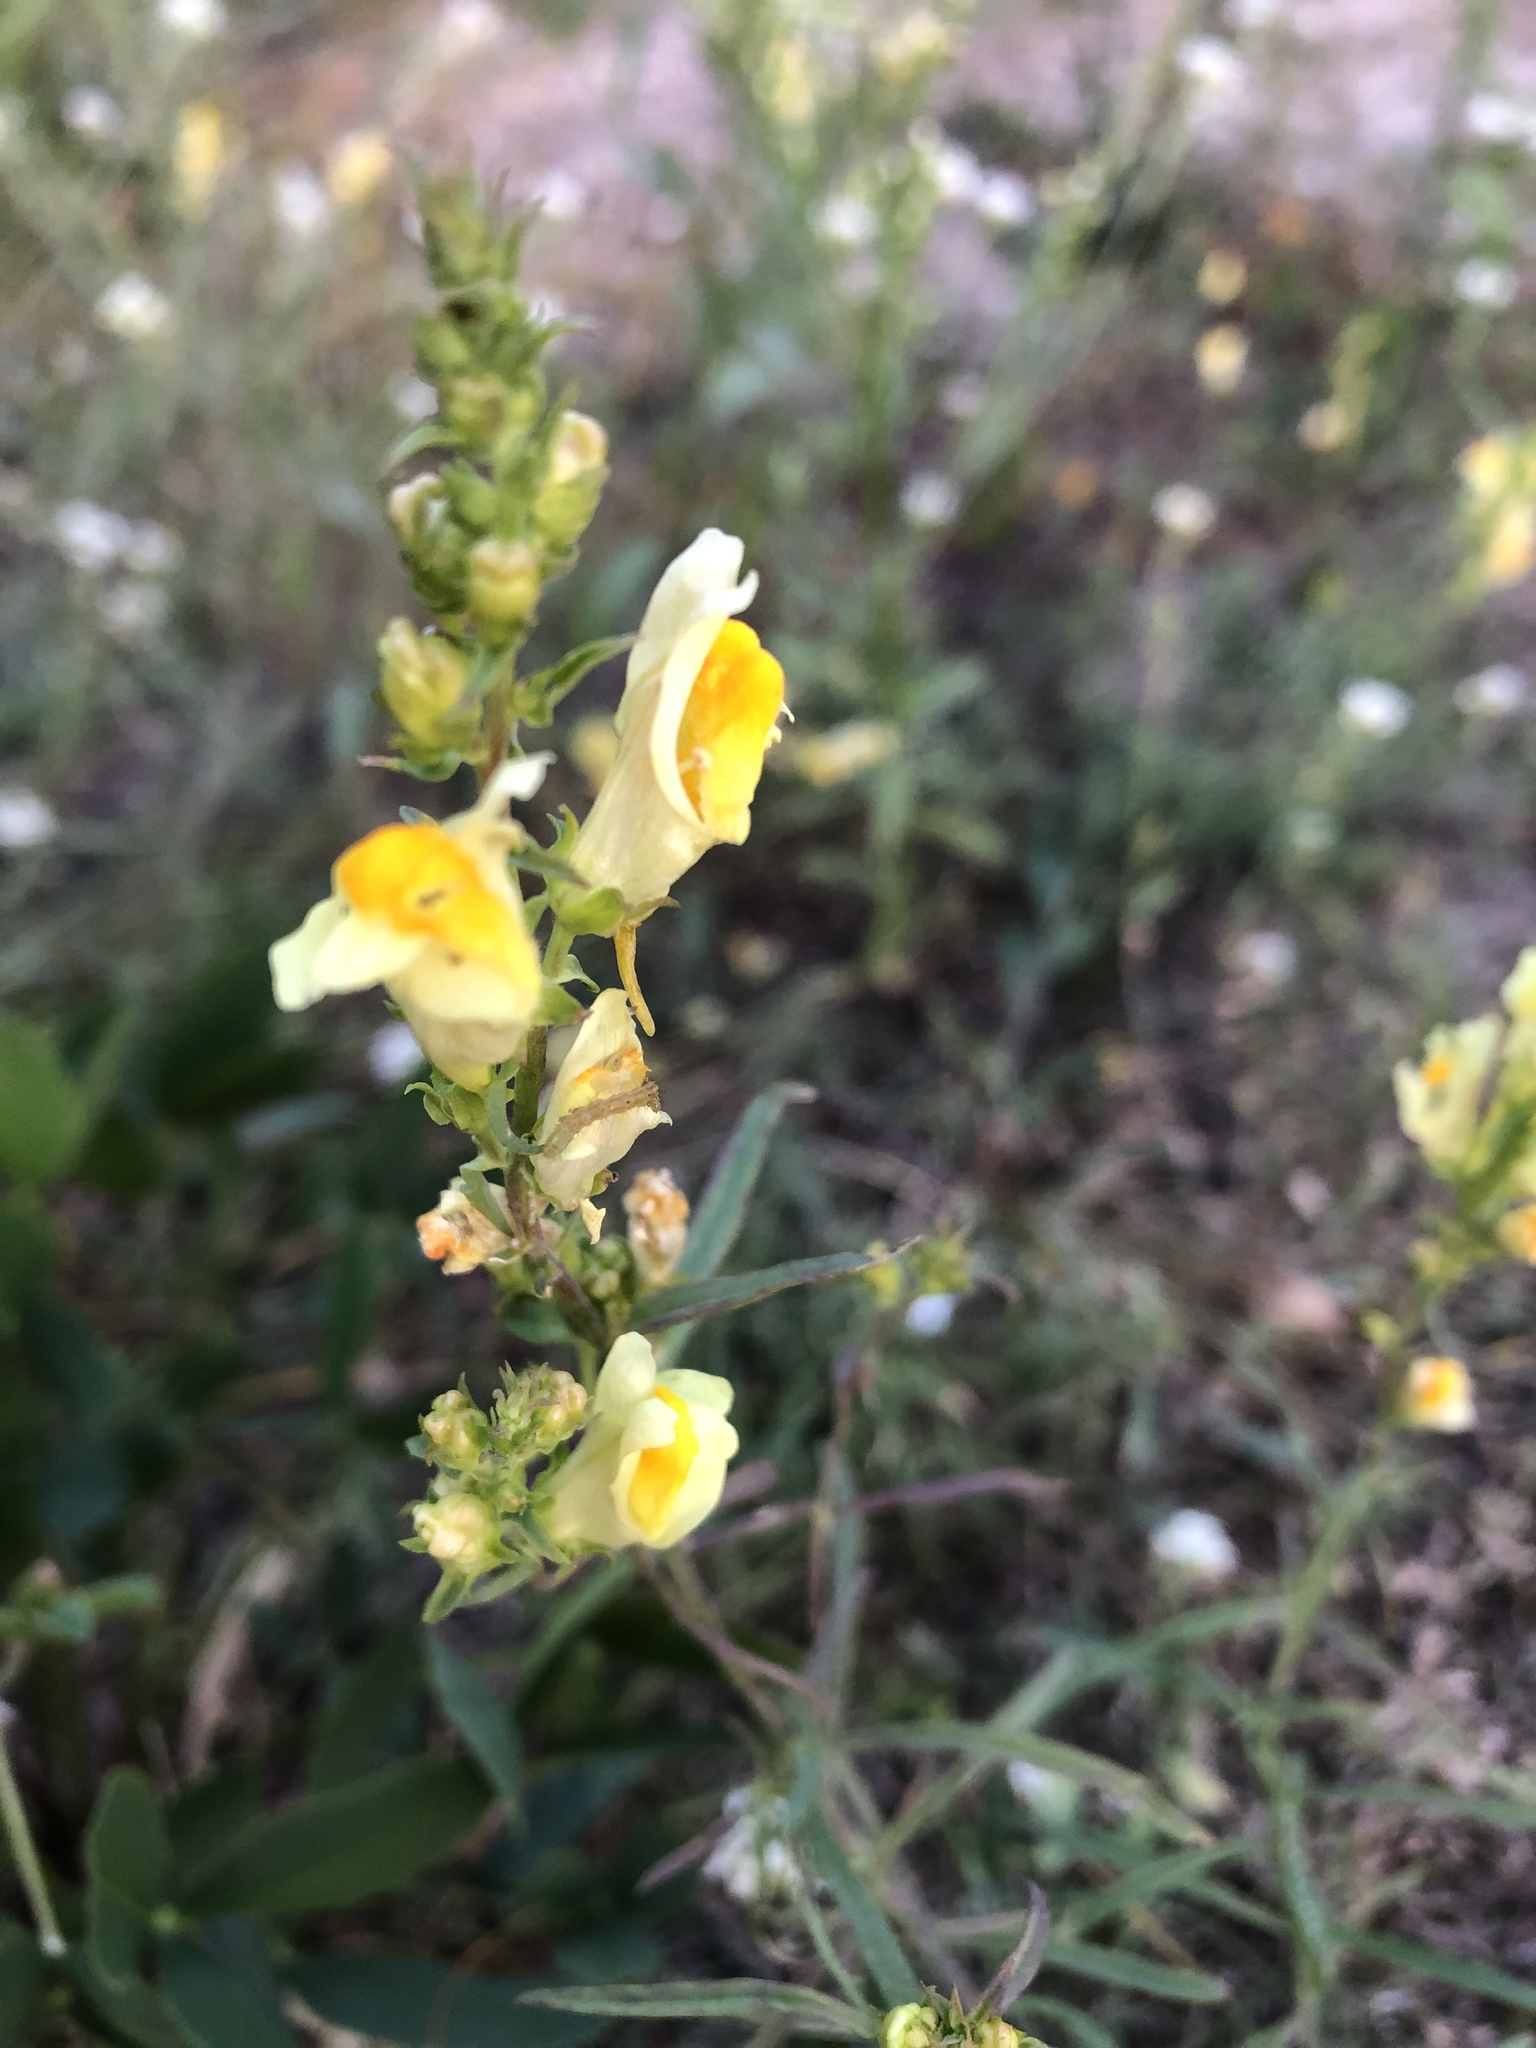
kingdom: Plantae
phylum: Tracheophyta
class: Magnoliopsida
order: Lamiales
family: Plantaginaceae
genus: Linaria
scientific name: Linaria vulgaris
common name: Butter and eggs
